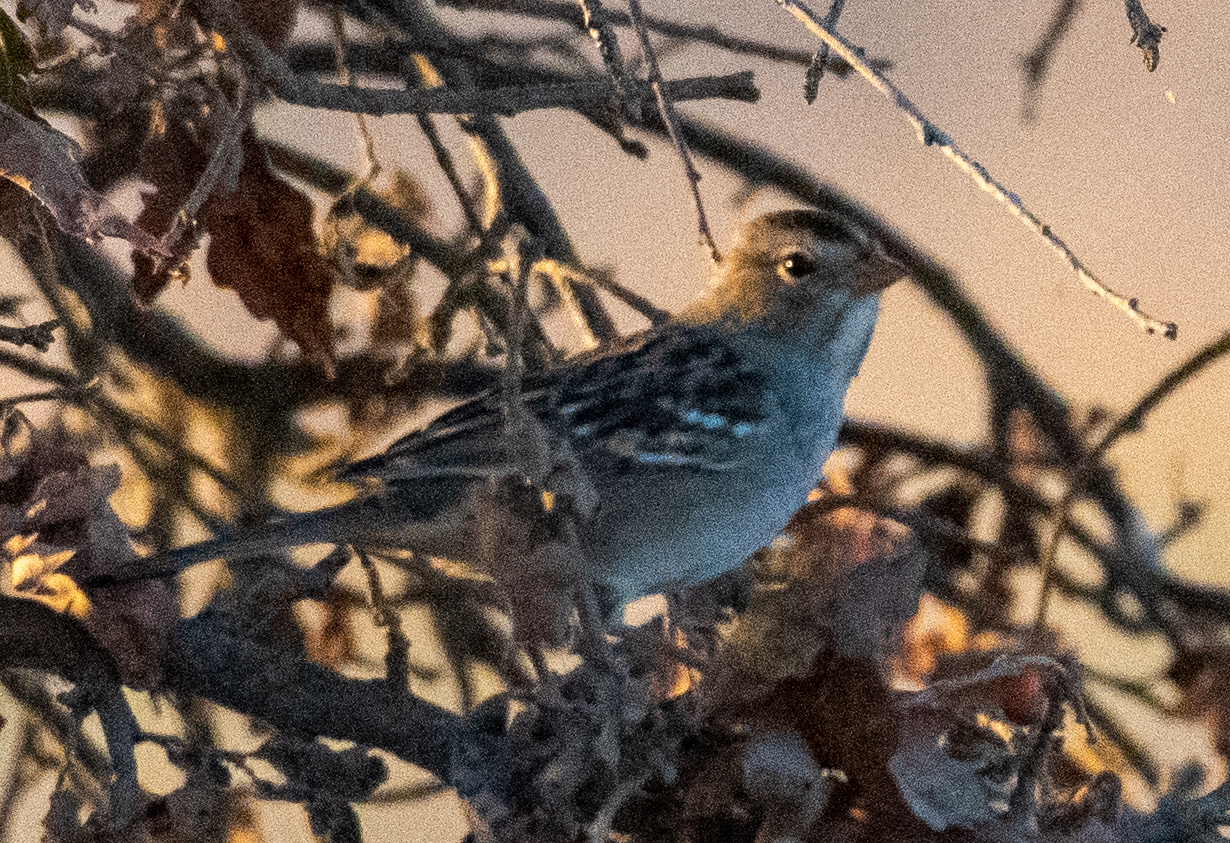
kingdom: Animalia
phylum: Chordata
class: Aves
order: Passeriformes
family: Passerellidae
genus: Zonotrichia
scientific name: Zonotrichia leucophrys
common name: White-crowned sparrow
